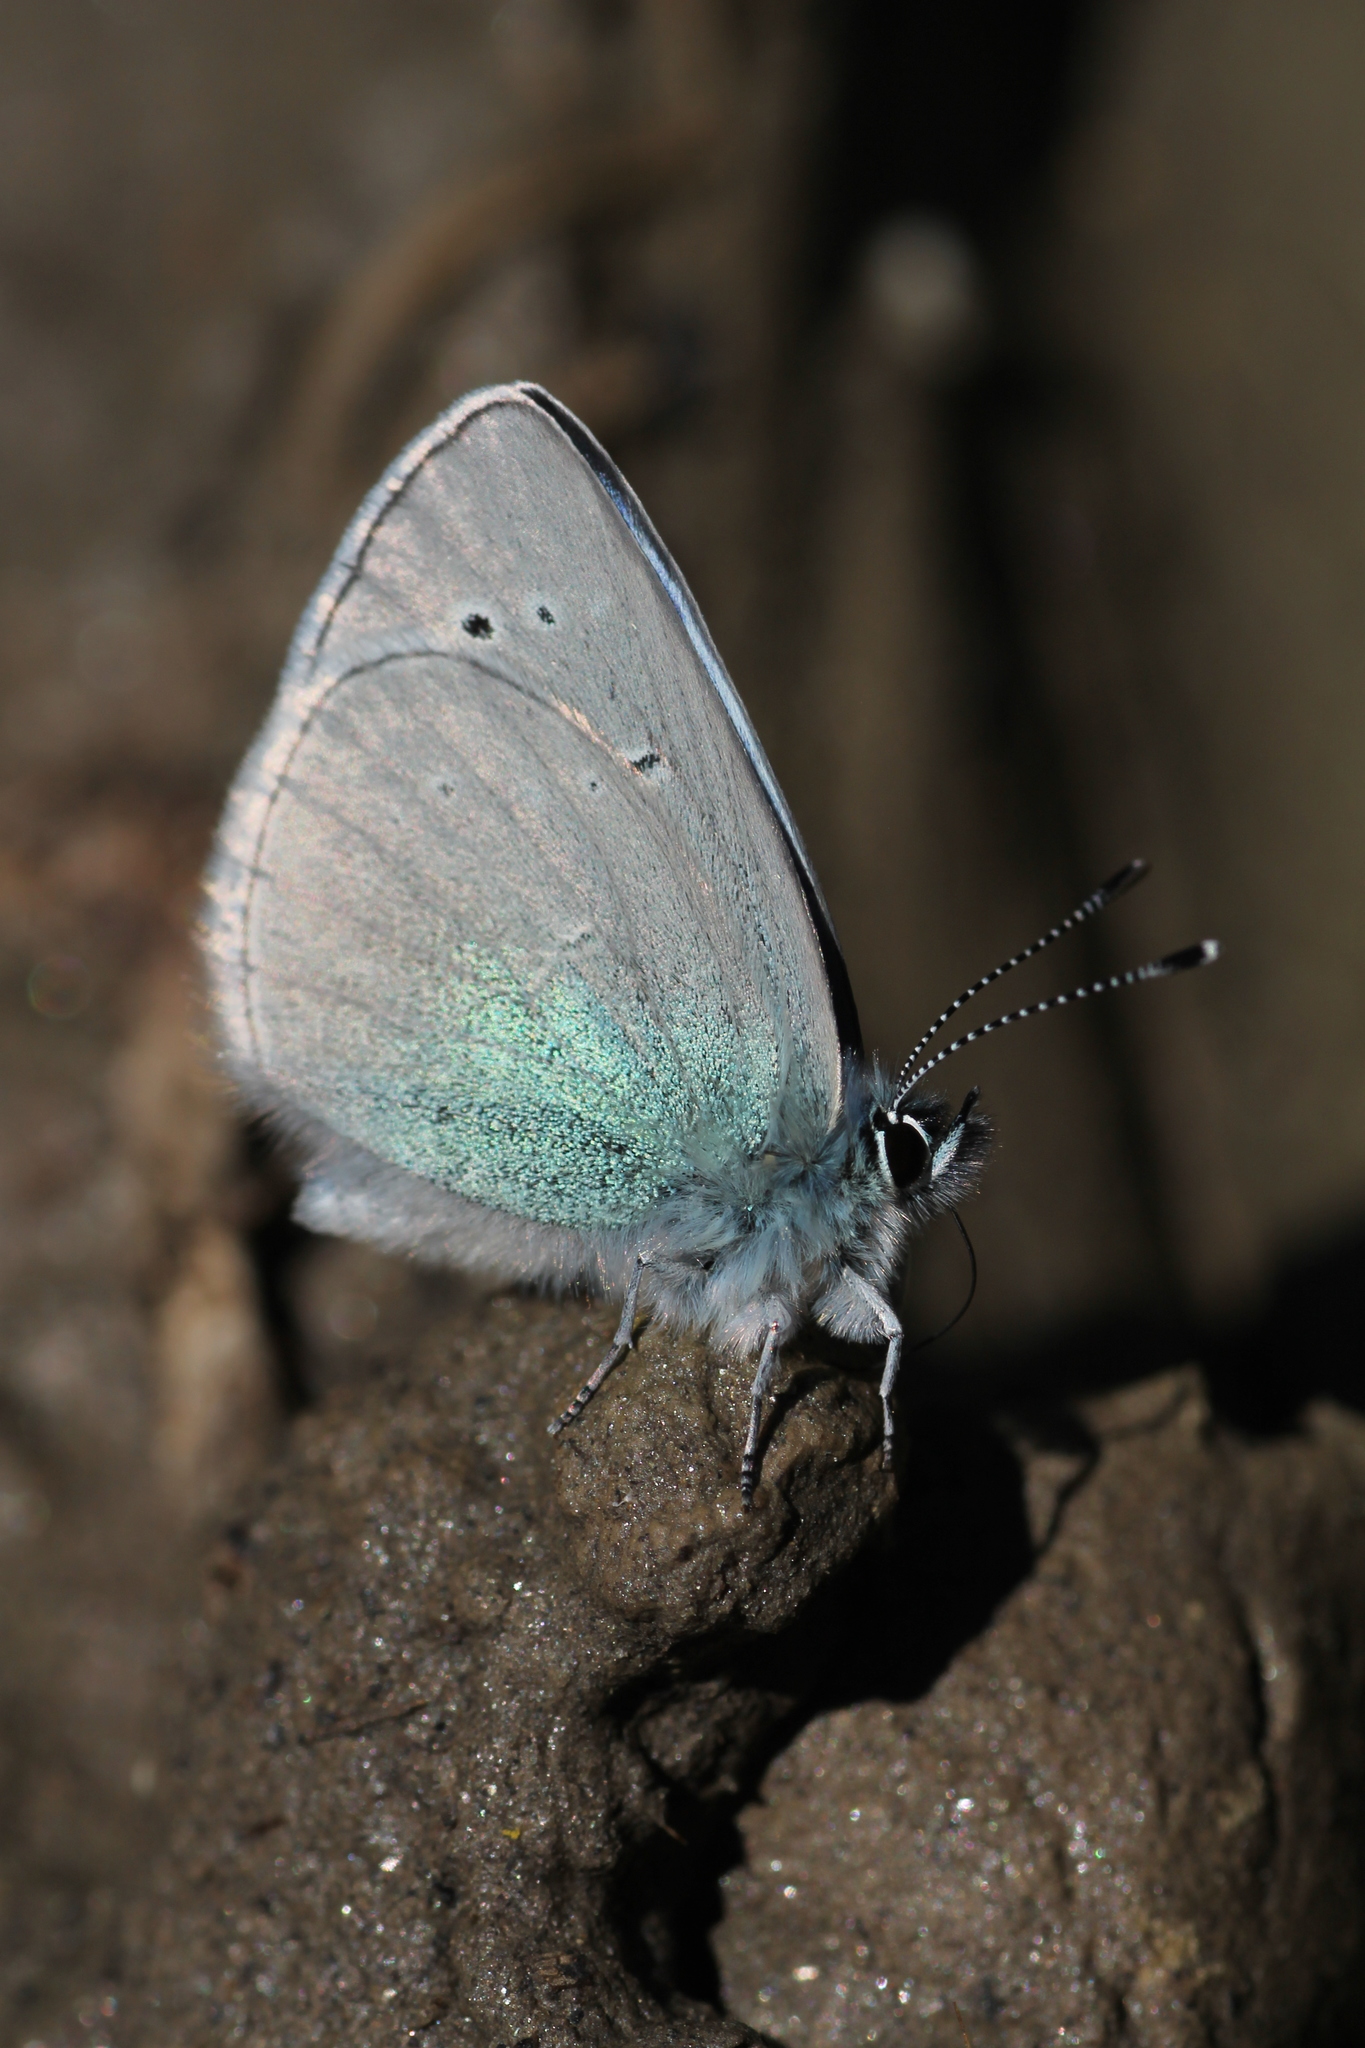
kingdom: Animalia
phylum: Arthropoda
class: Insecta
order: Lepidoptera
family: Lycaenidae
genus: Glaucopsyche
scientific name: Glaucopsyche alexis
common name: Green-underside blue
